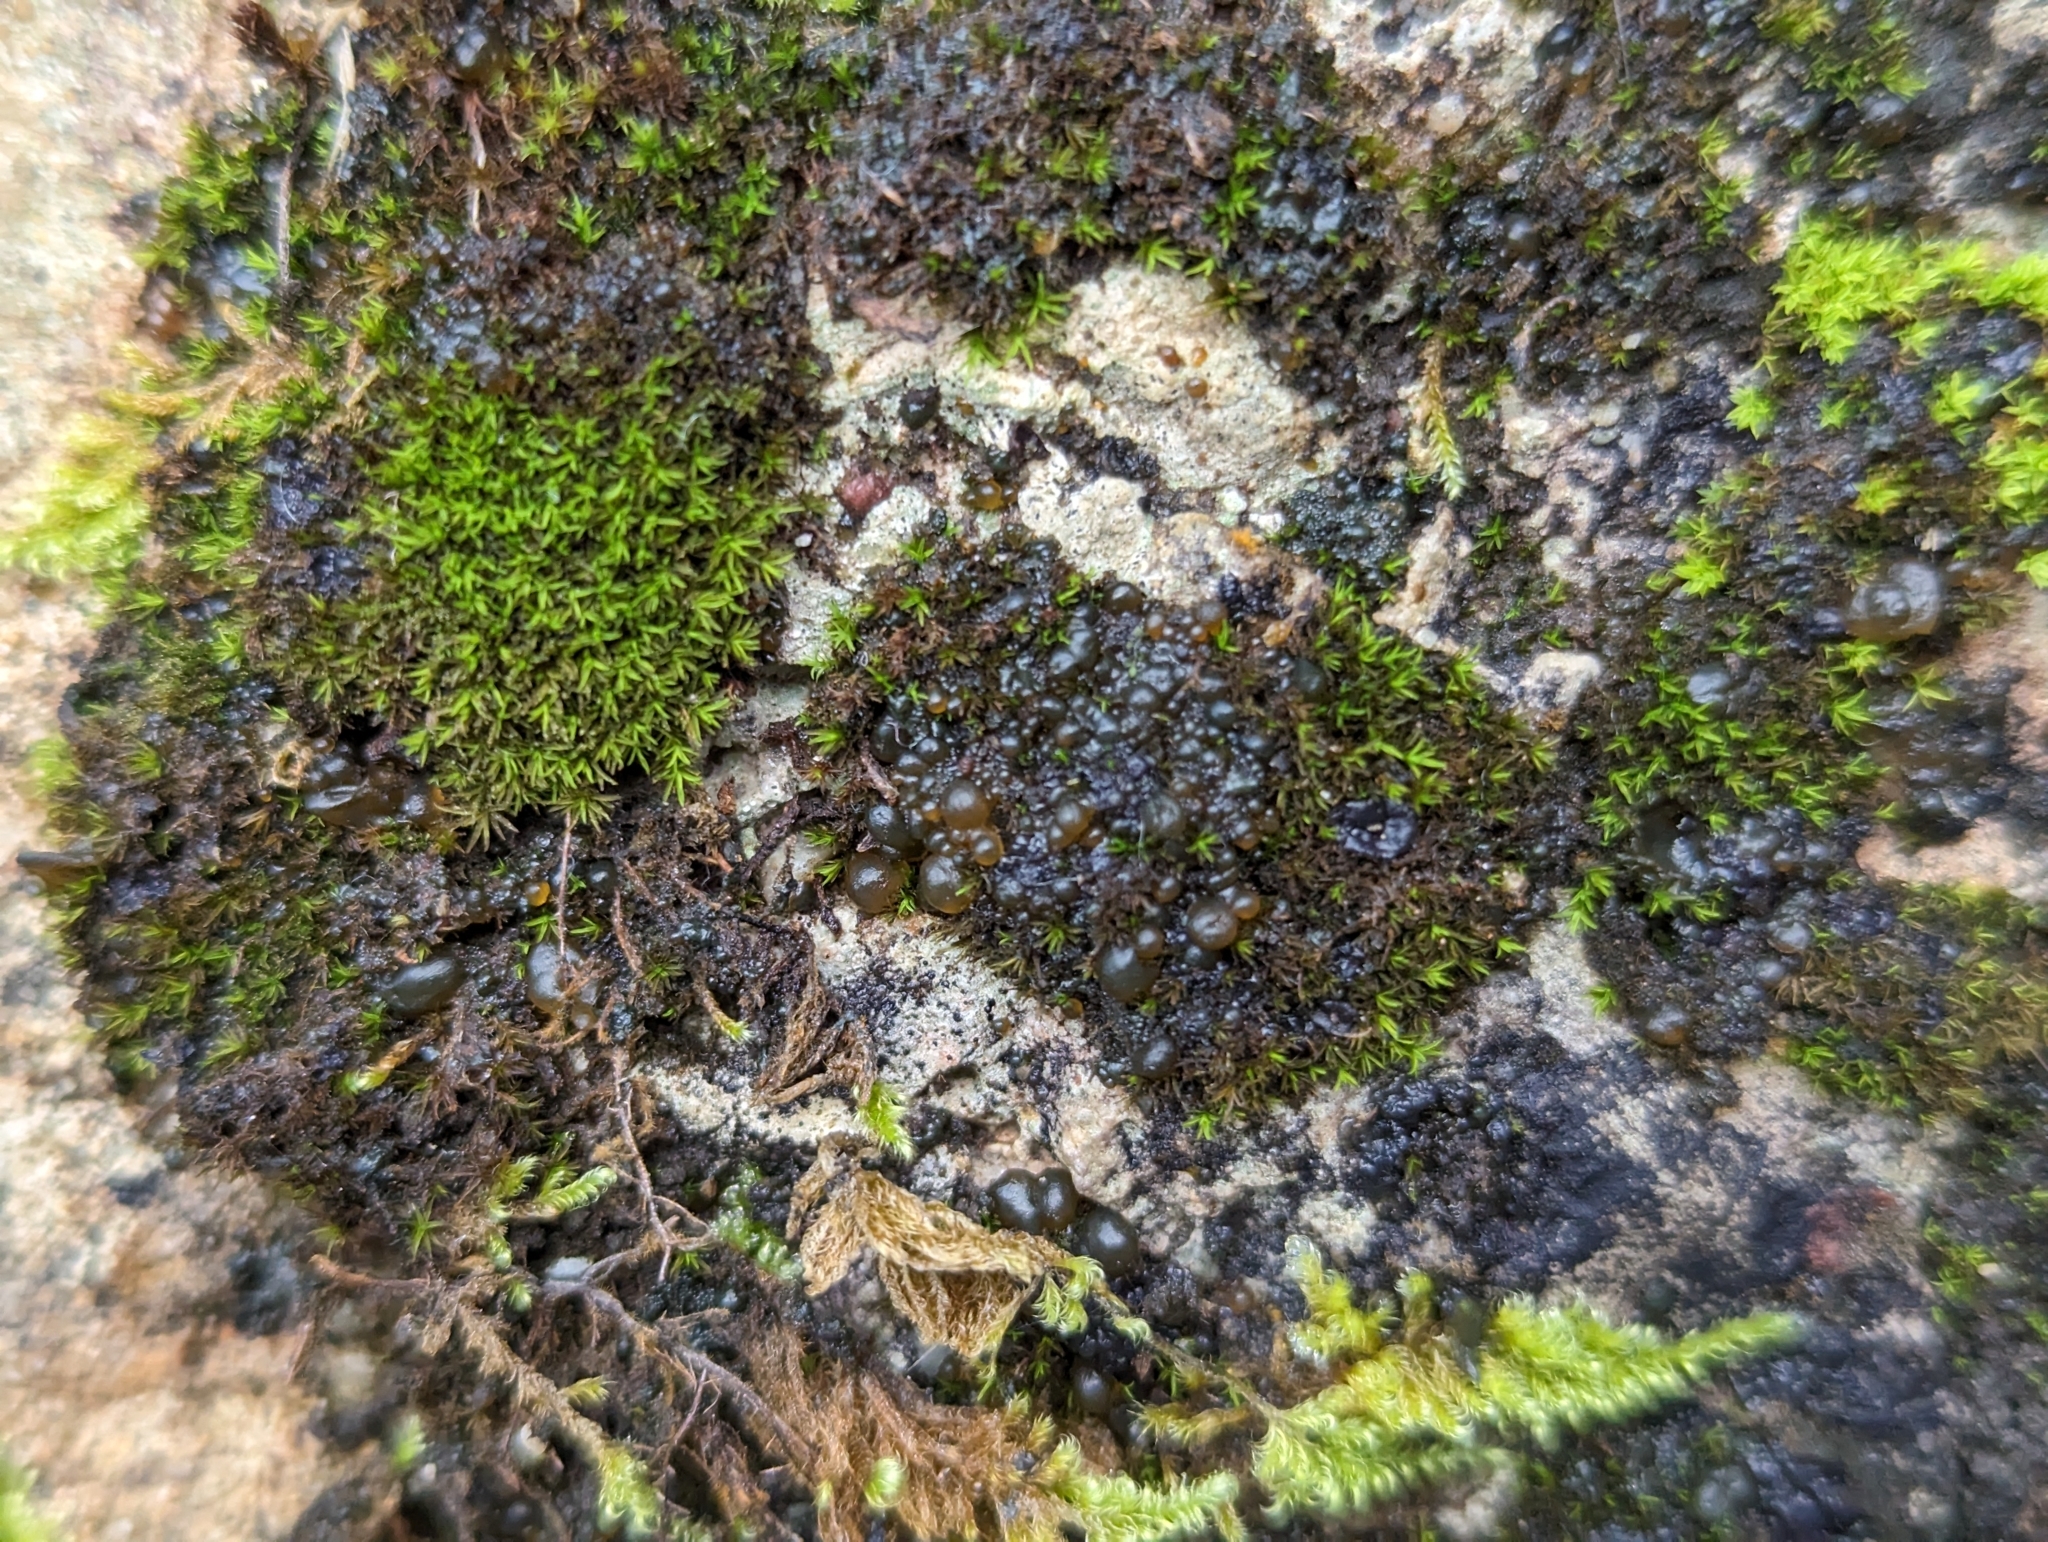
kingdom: Bacteria
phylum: Cyanobacteria
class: Cyanobacteriia
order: Cyanobacteriales
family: Nostocaceae
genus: Nostoc
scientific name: Nostoc commune
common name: Star jelly
